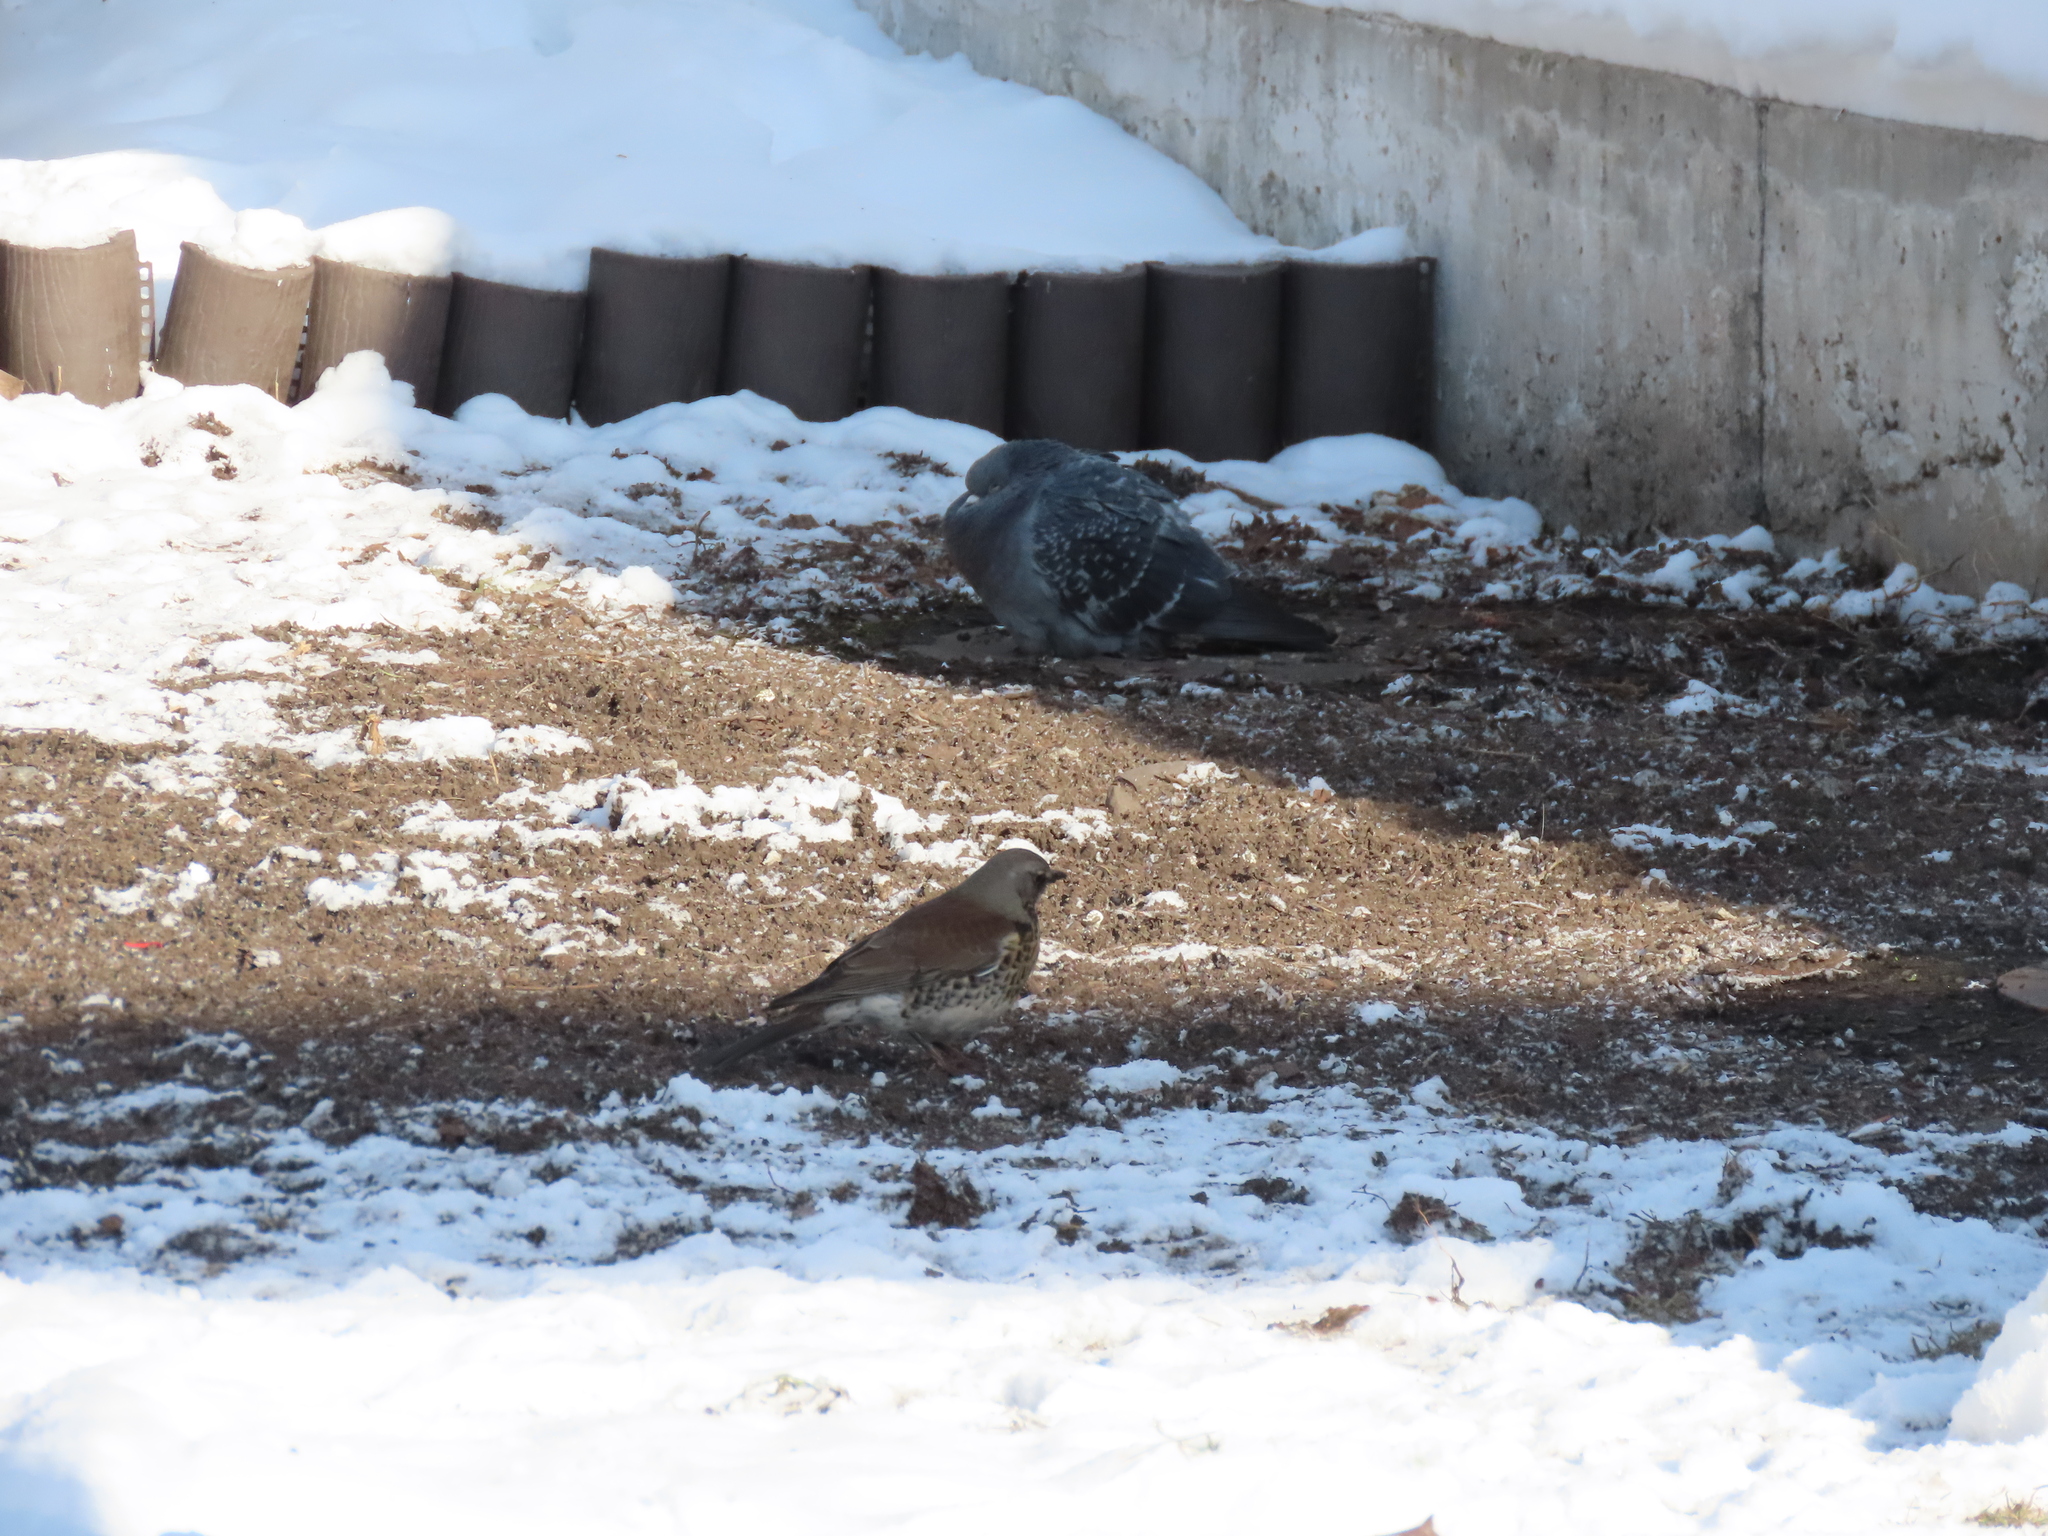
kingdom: Animalia
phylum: Chordata
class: Aves
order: Passeriformes
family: Turdidae
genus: Turdus
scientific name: Turdus pilaris
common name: Fieldfare
